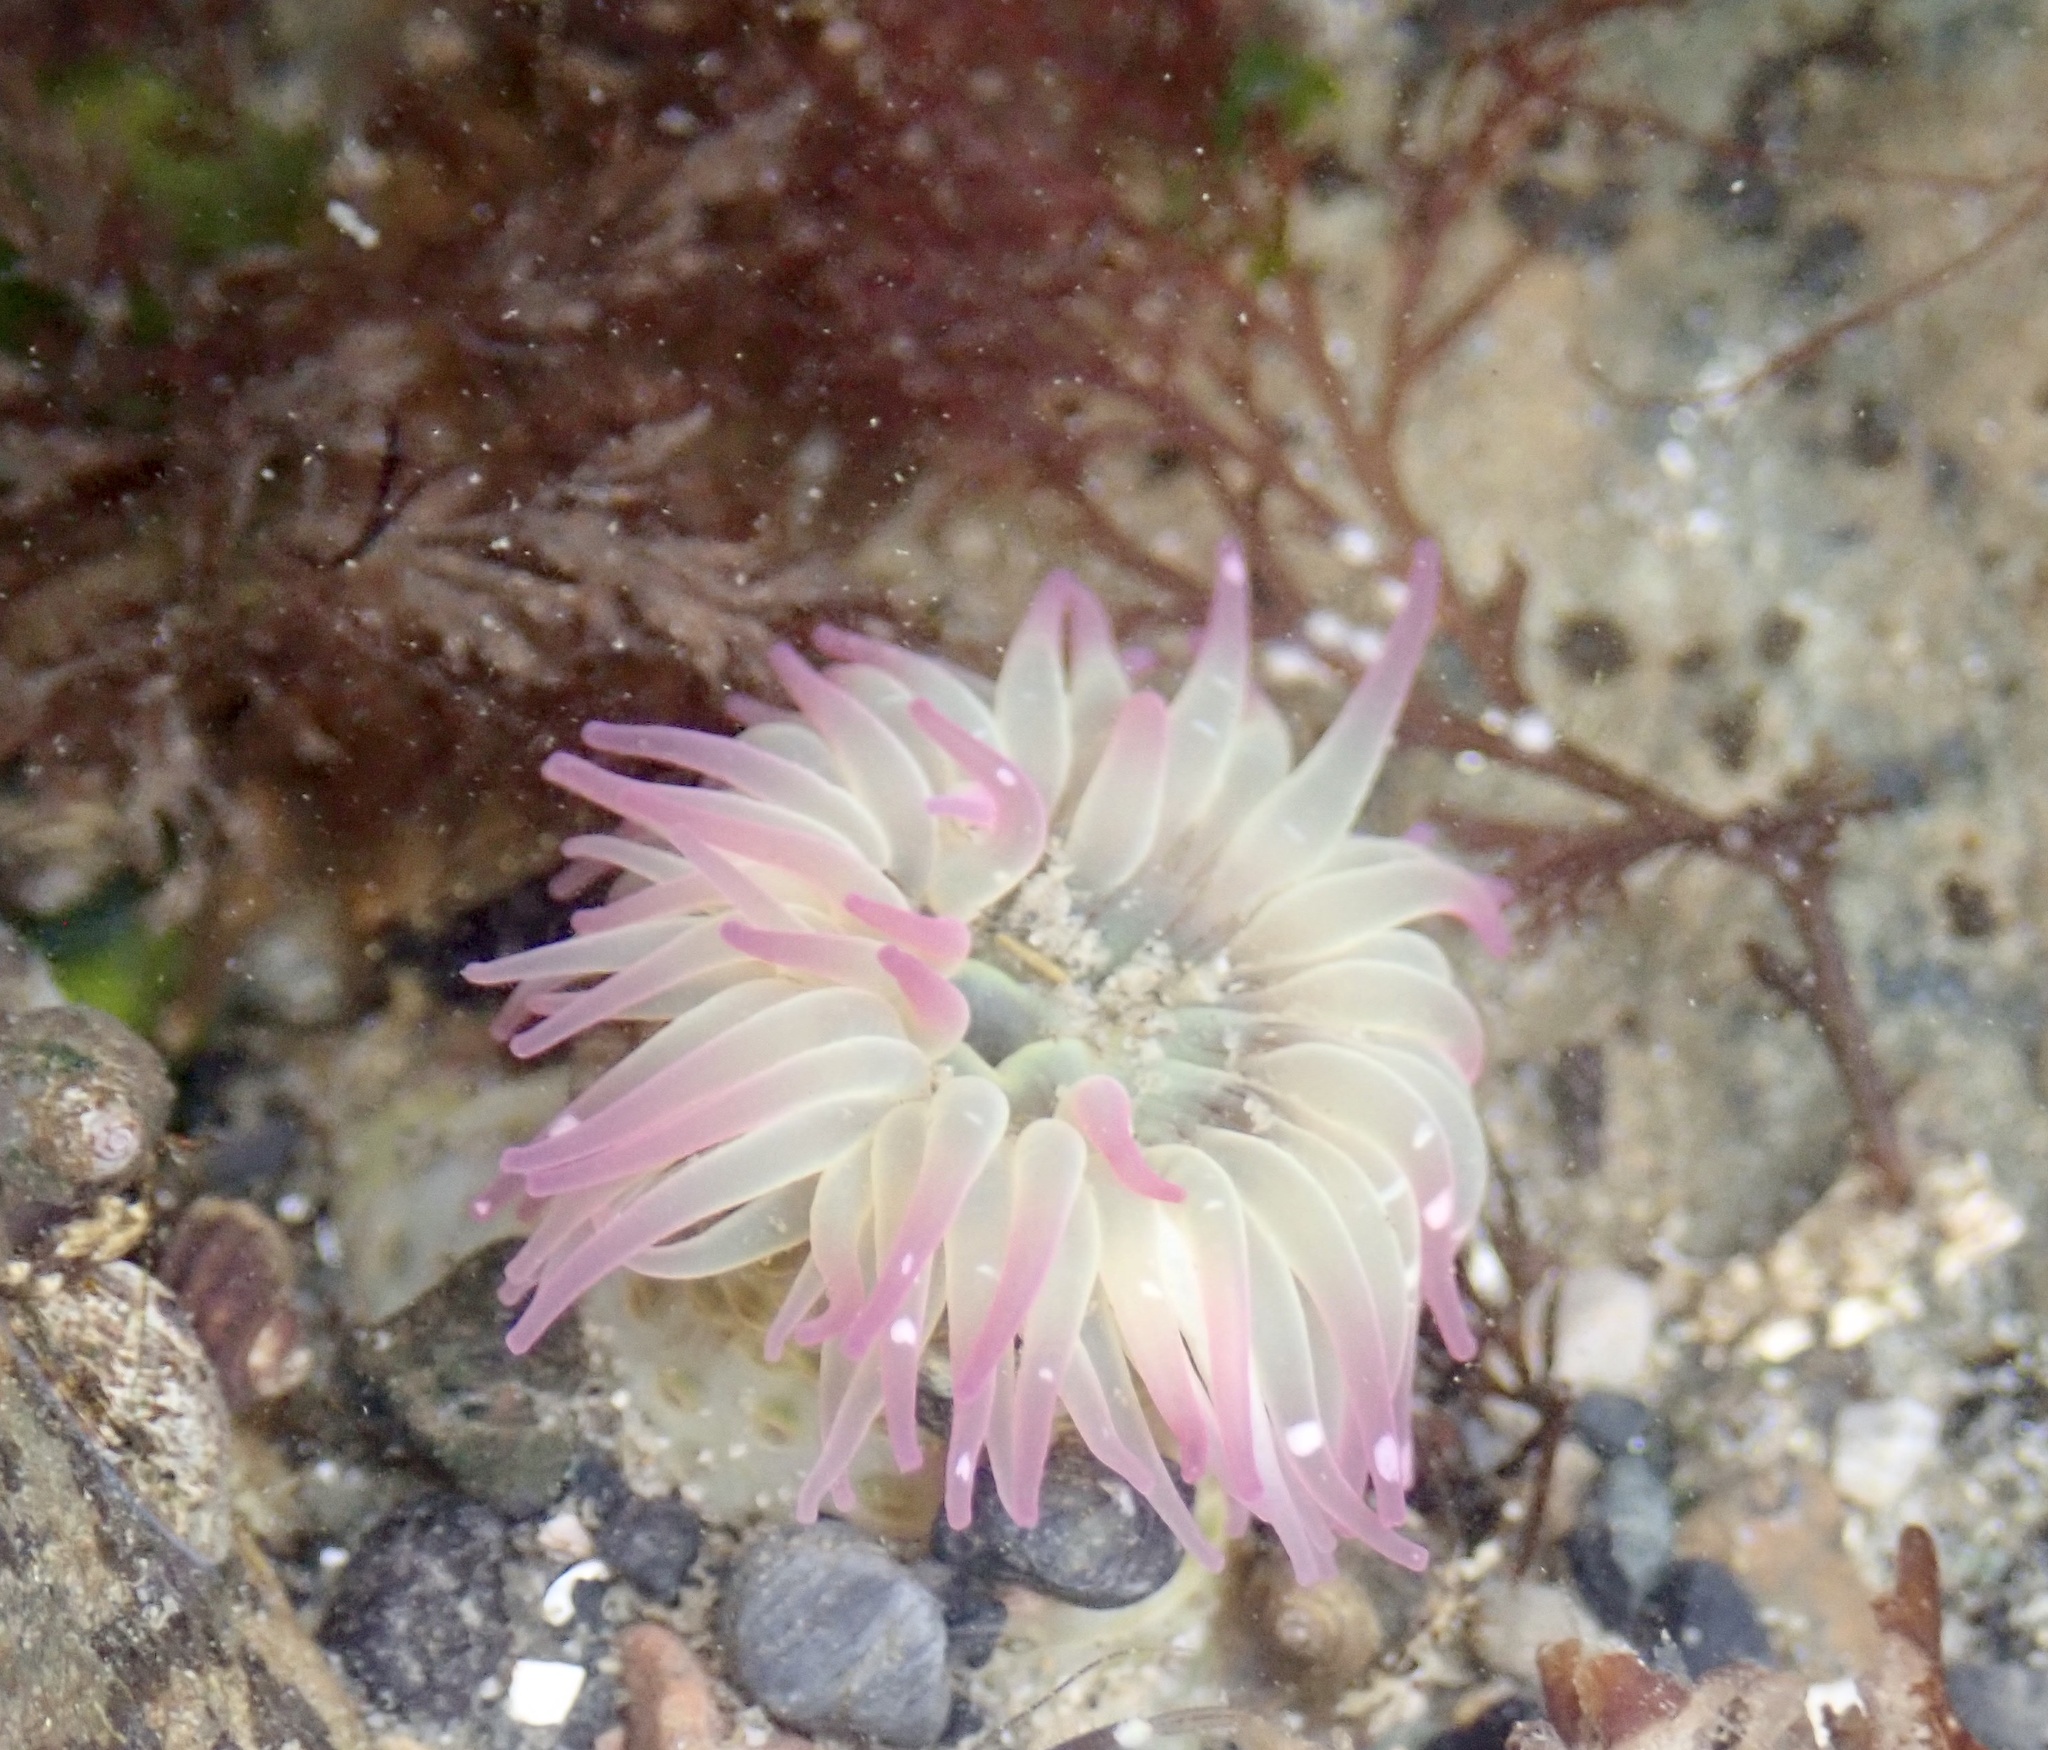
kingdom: Animalia
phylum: Cnidaria
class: Anthozoa
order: Actiniaria
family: Actiniidae
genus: Anthopleura
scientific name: Anthopleura elegantissima
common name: Clonal anemone
